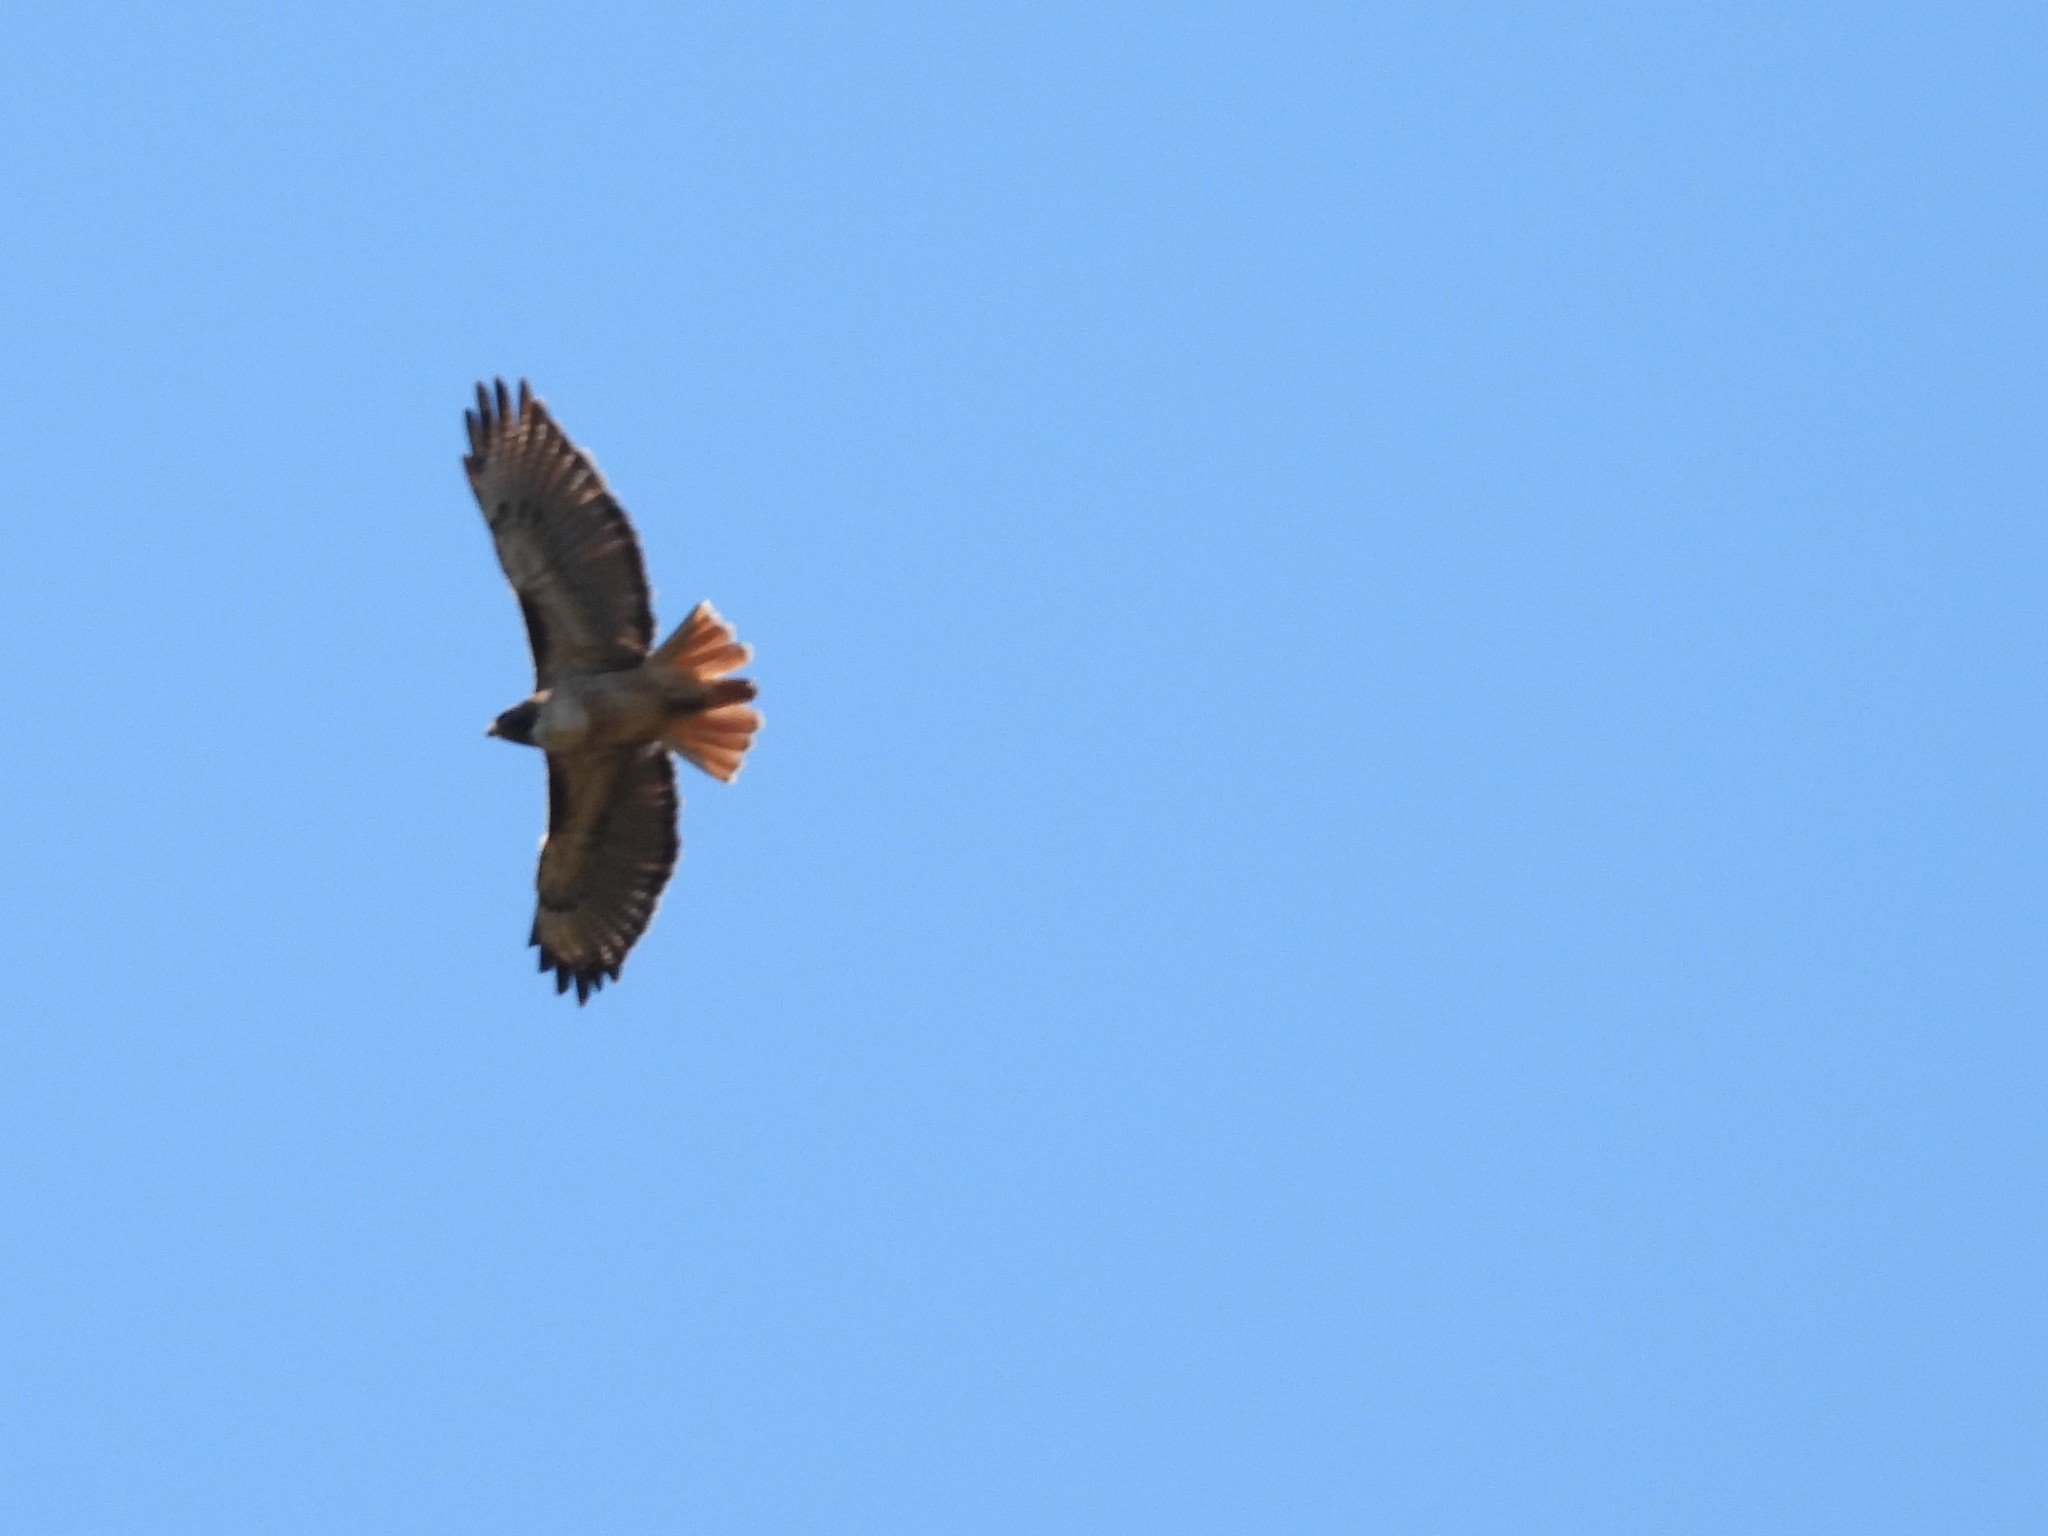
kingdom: Animalia
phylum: Chordata
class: Aves
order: Accipitriformes
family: Accipitridae
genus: Buteo
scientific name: Buteo jamaicensis
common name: Red-tailed hawk
